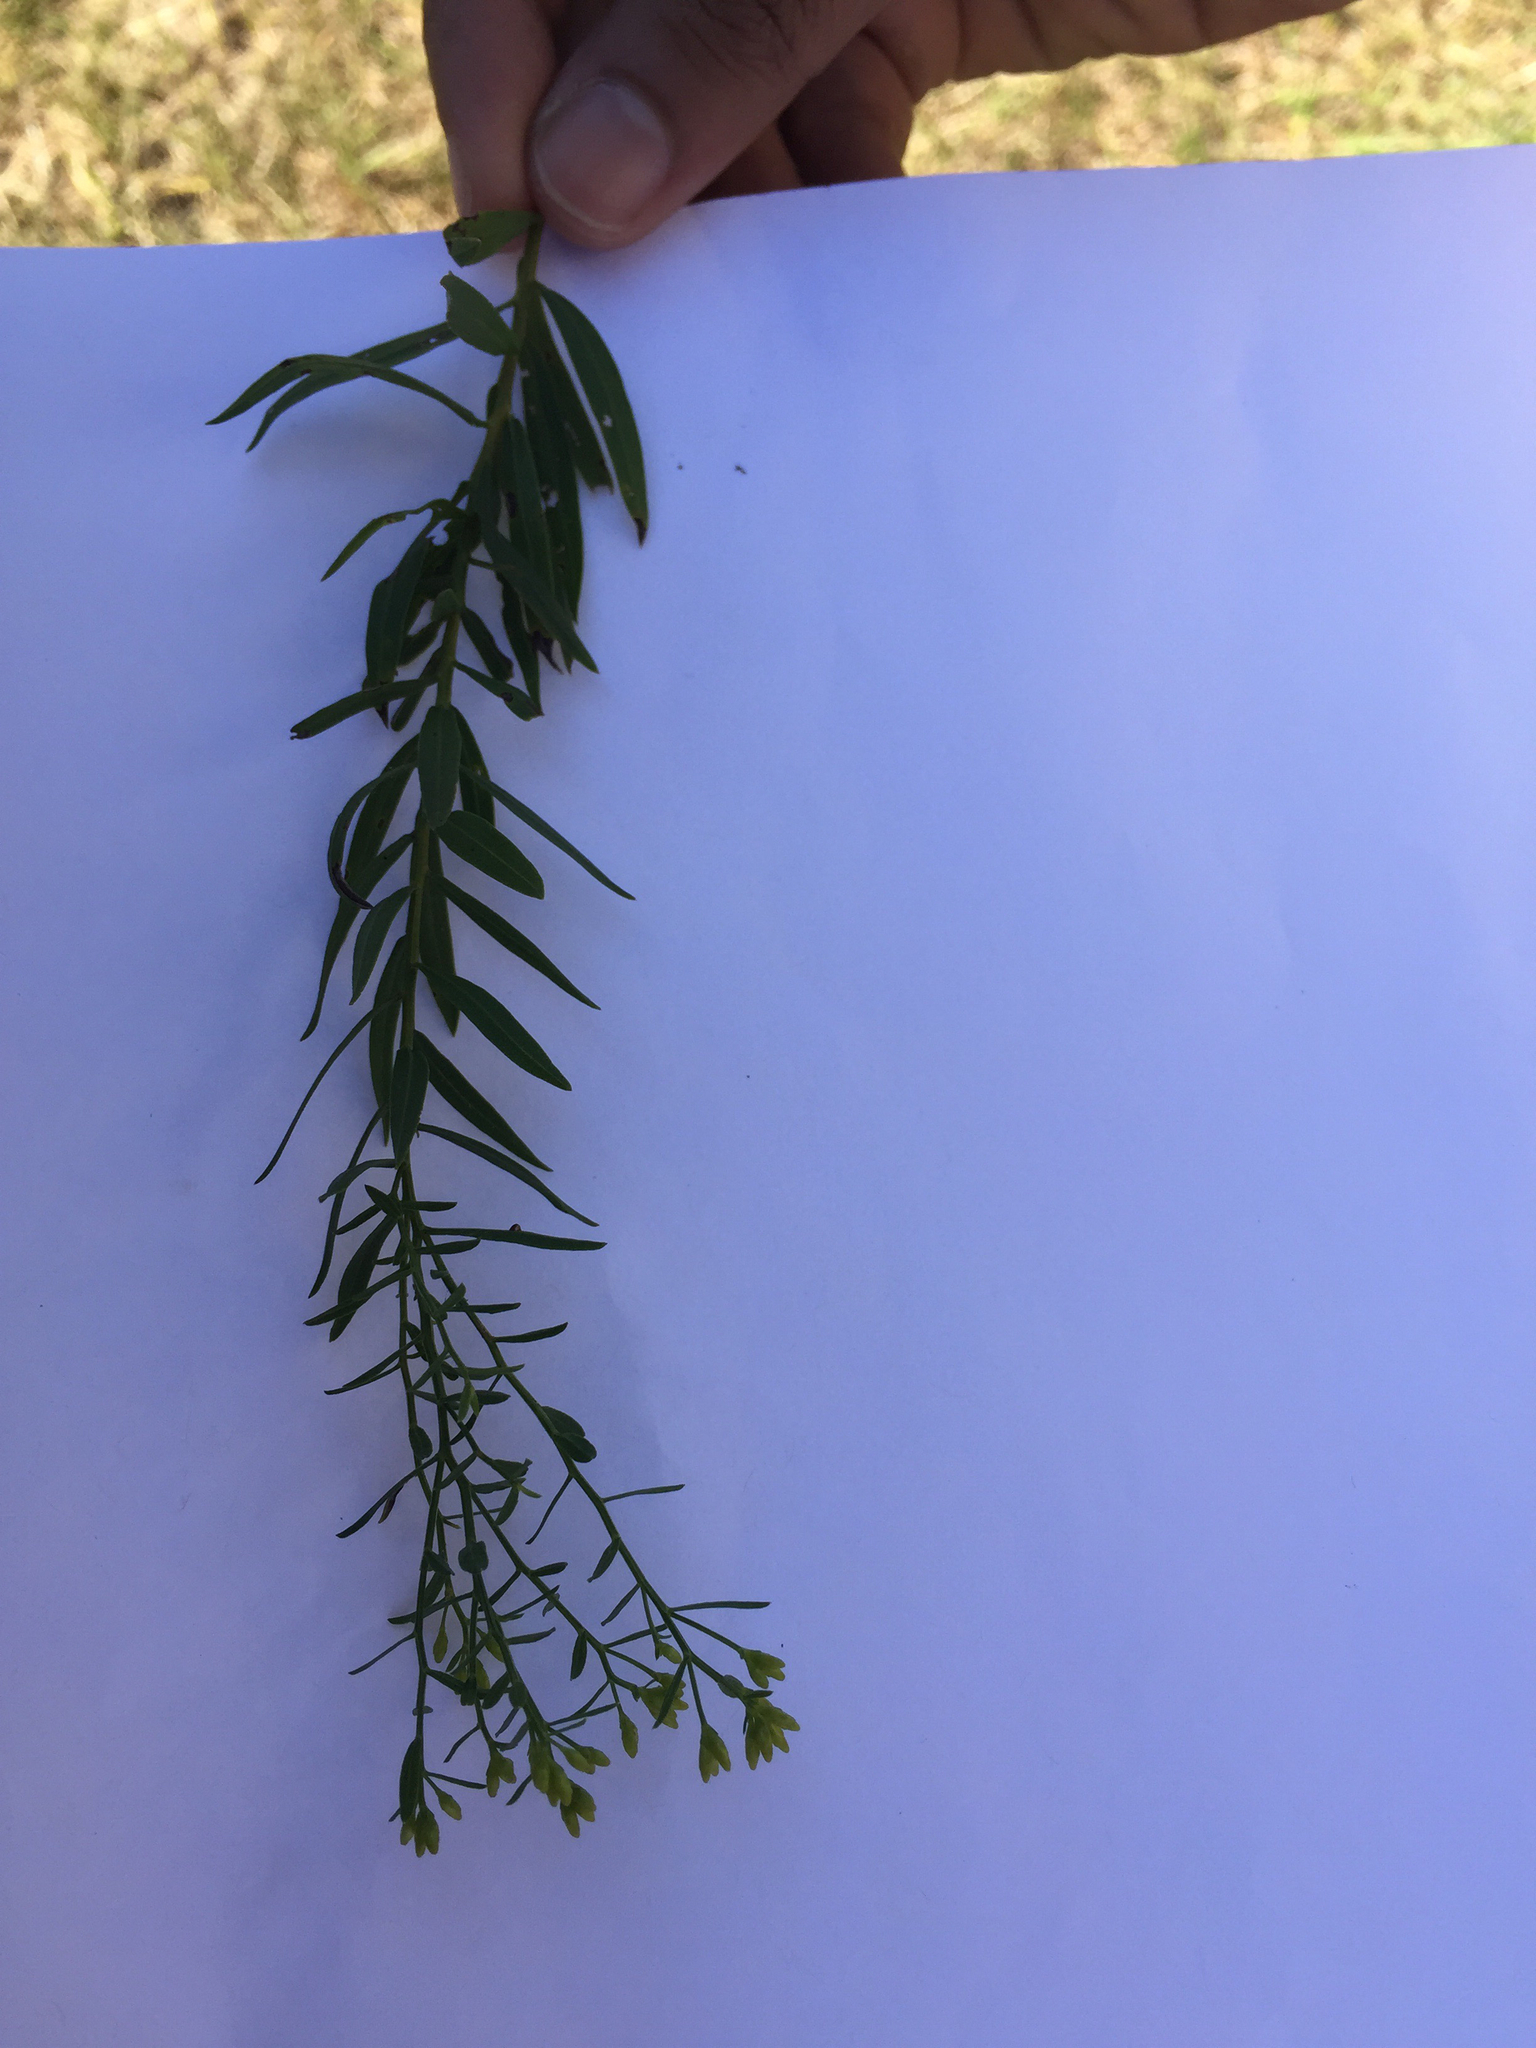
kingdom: Plantae
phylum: Tracheophyta
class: Magnoliopsida
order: Asterales
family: Asteraceae
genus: Euthamia
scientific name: Euthamia leptocephala
